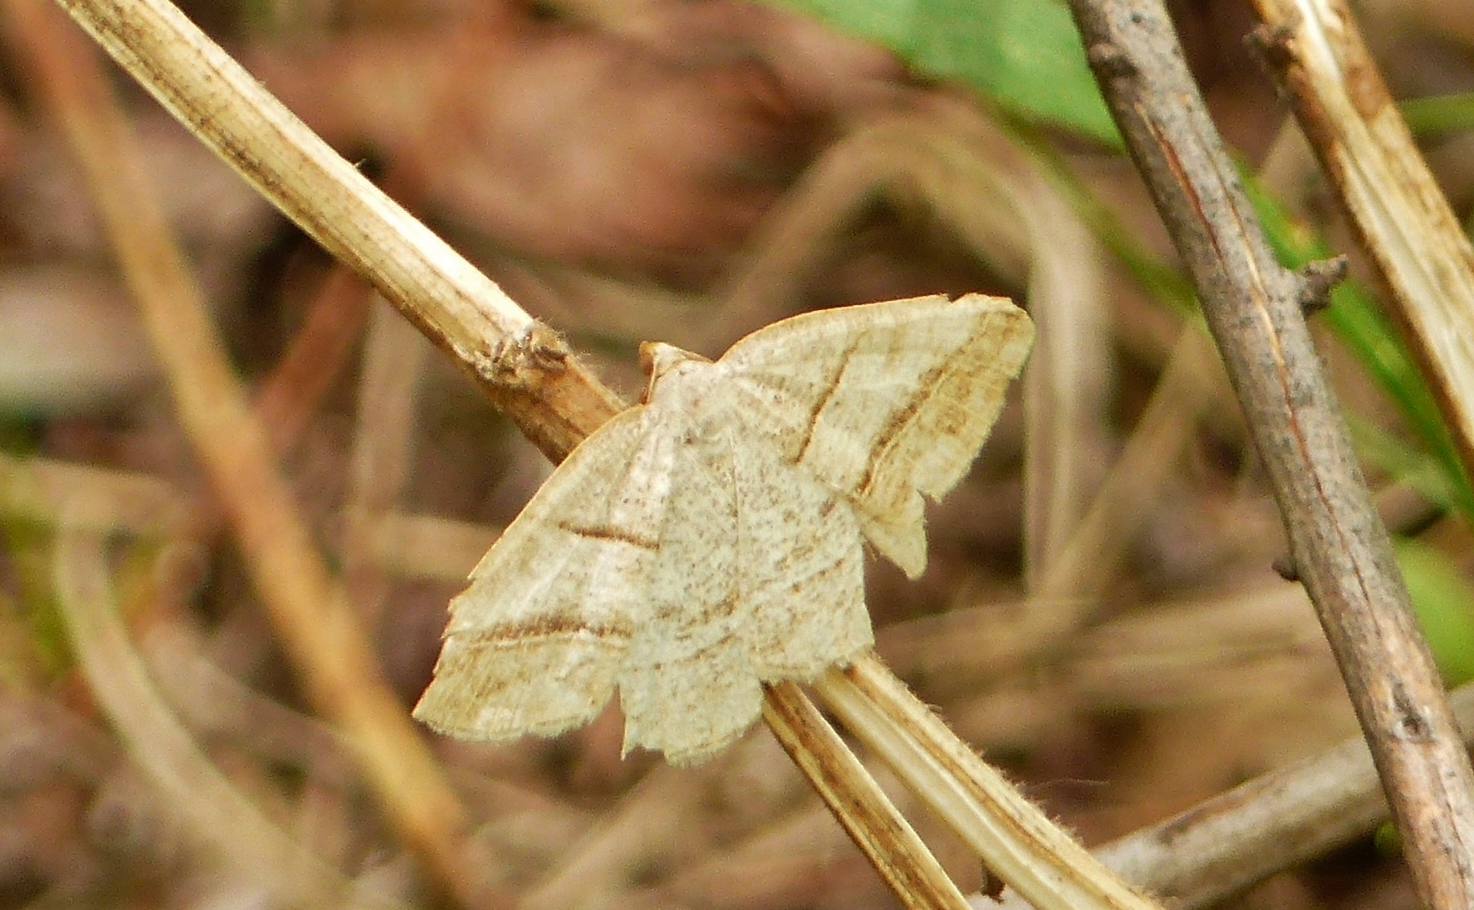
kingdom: Animalia
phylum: Arthropoda
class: Insecta
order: Lepidoptera
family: Pterophoridae
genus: Pterophorus
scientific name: Pterophorus Petrophora subaequaria
